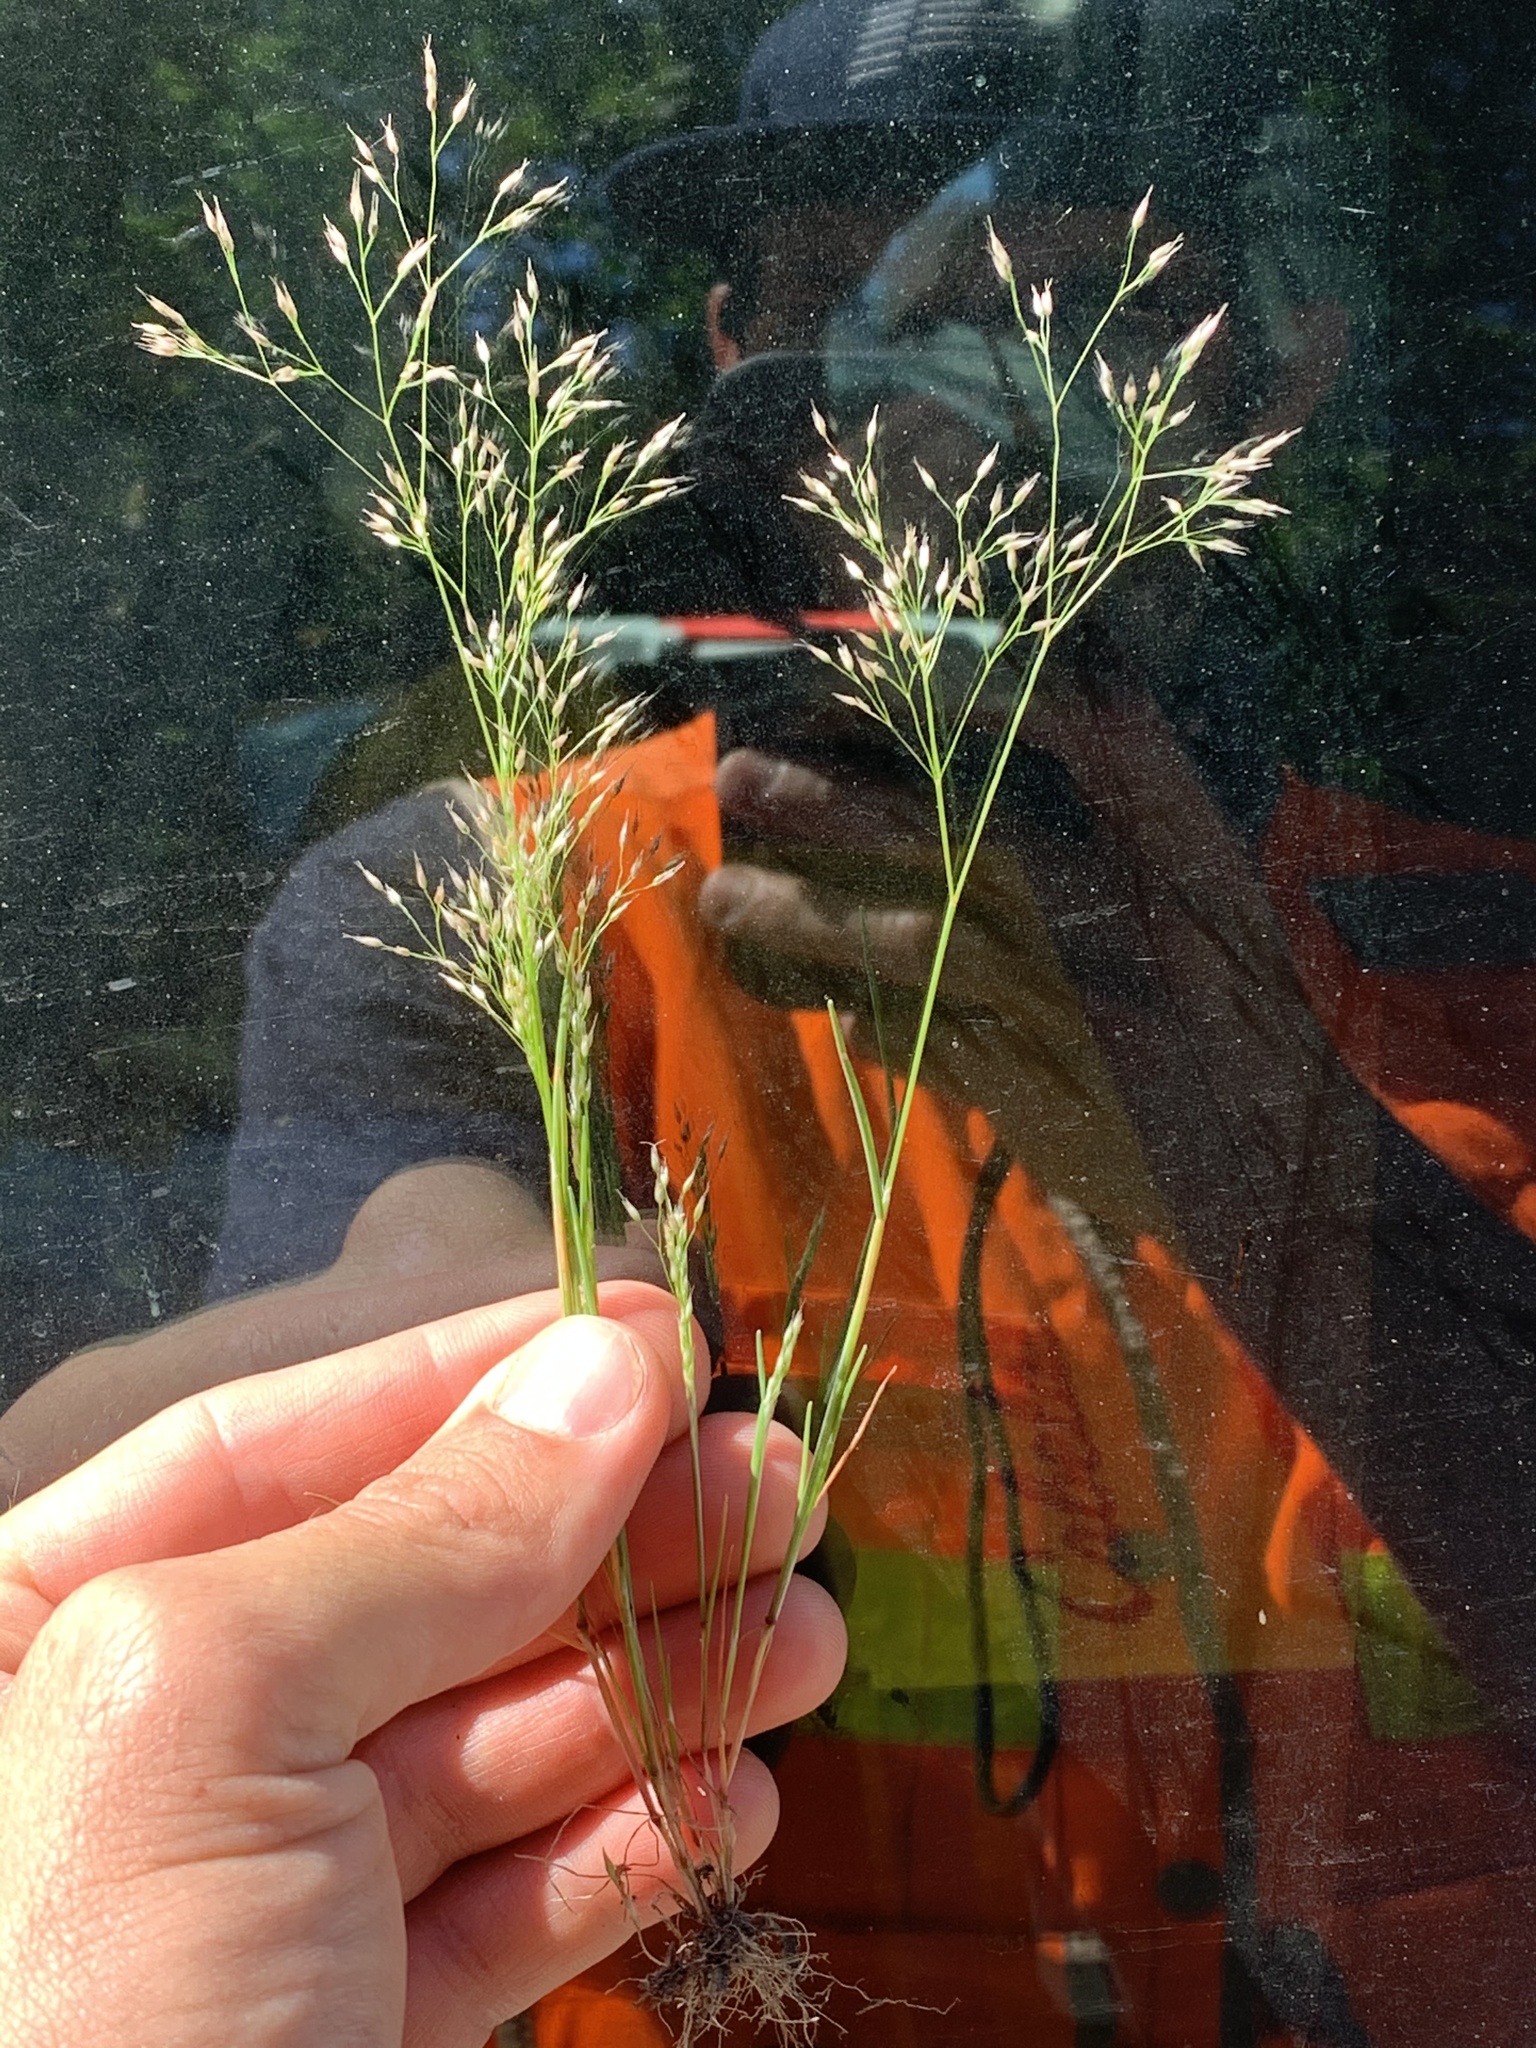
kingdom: Plantae
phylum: Tracheophyta
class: Liliopsida
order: Poales
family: Poaceae
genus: Aira
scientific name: Aira caryophyllea
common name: Silver hairgrass
